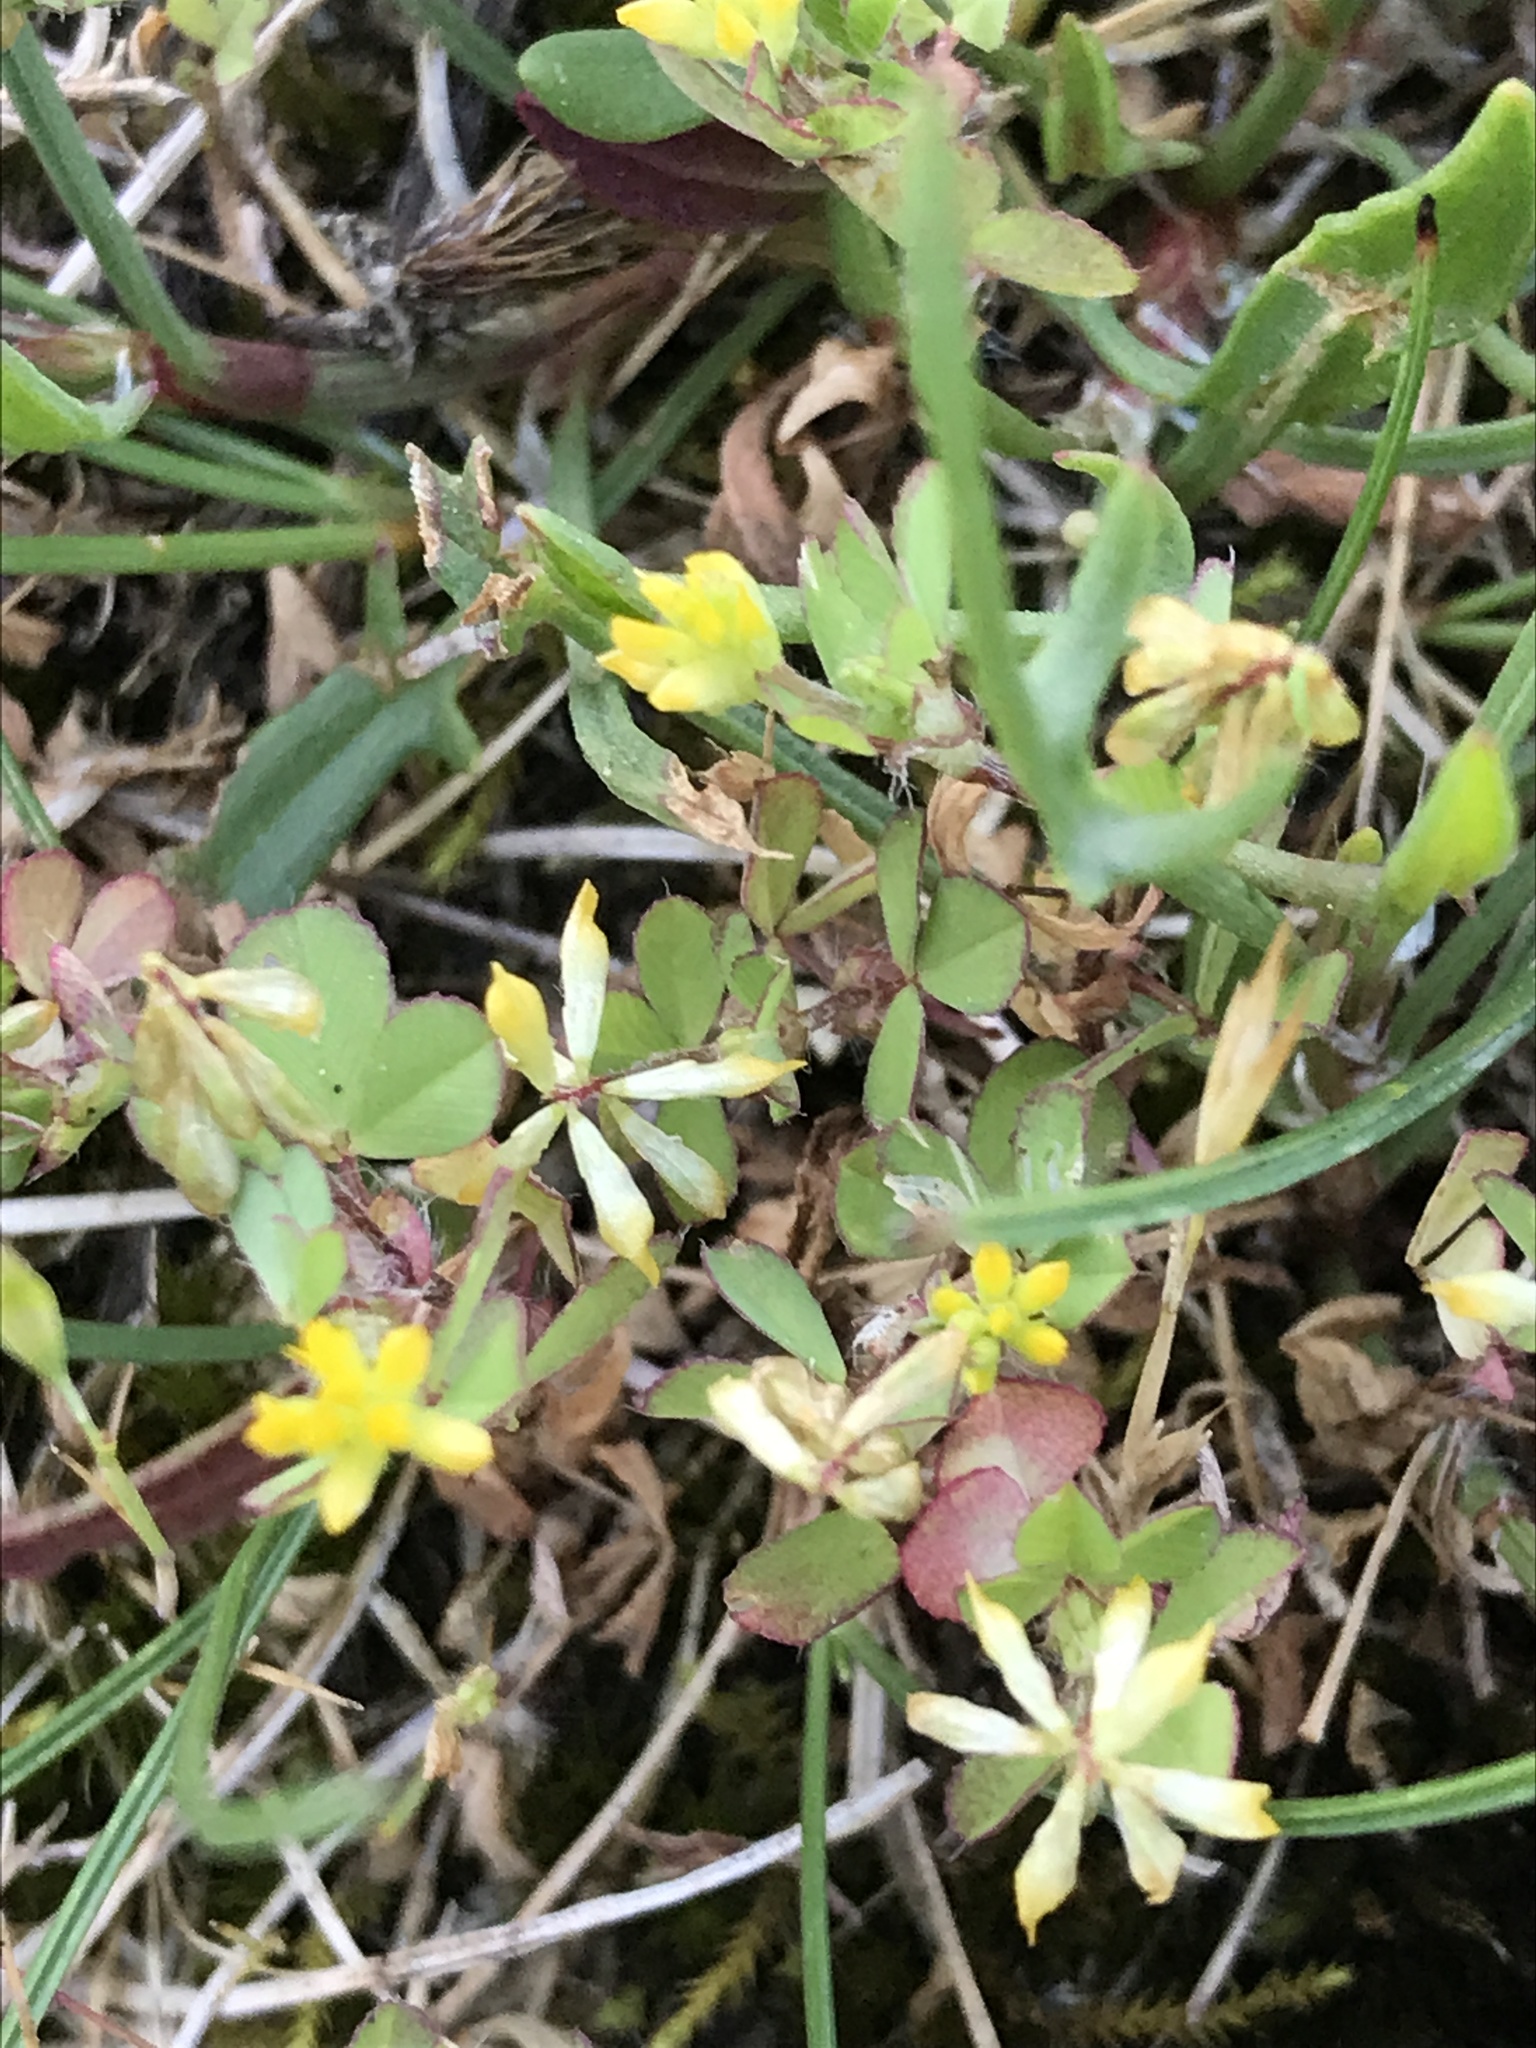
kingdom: Plantae
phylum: Tracheophyta
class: Magnoliopsida
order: Fabales
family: Fabaceae
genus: Trifolium
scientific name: Trifolium dubium
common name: Suckling clover
